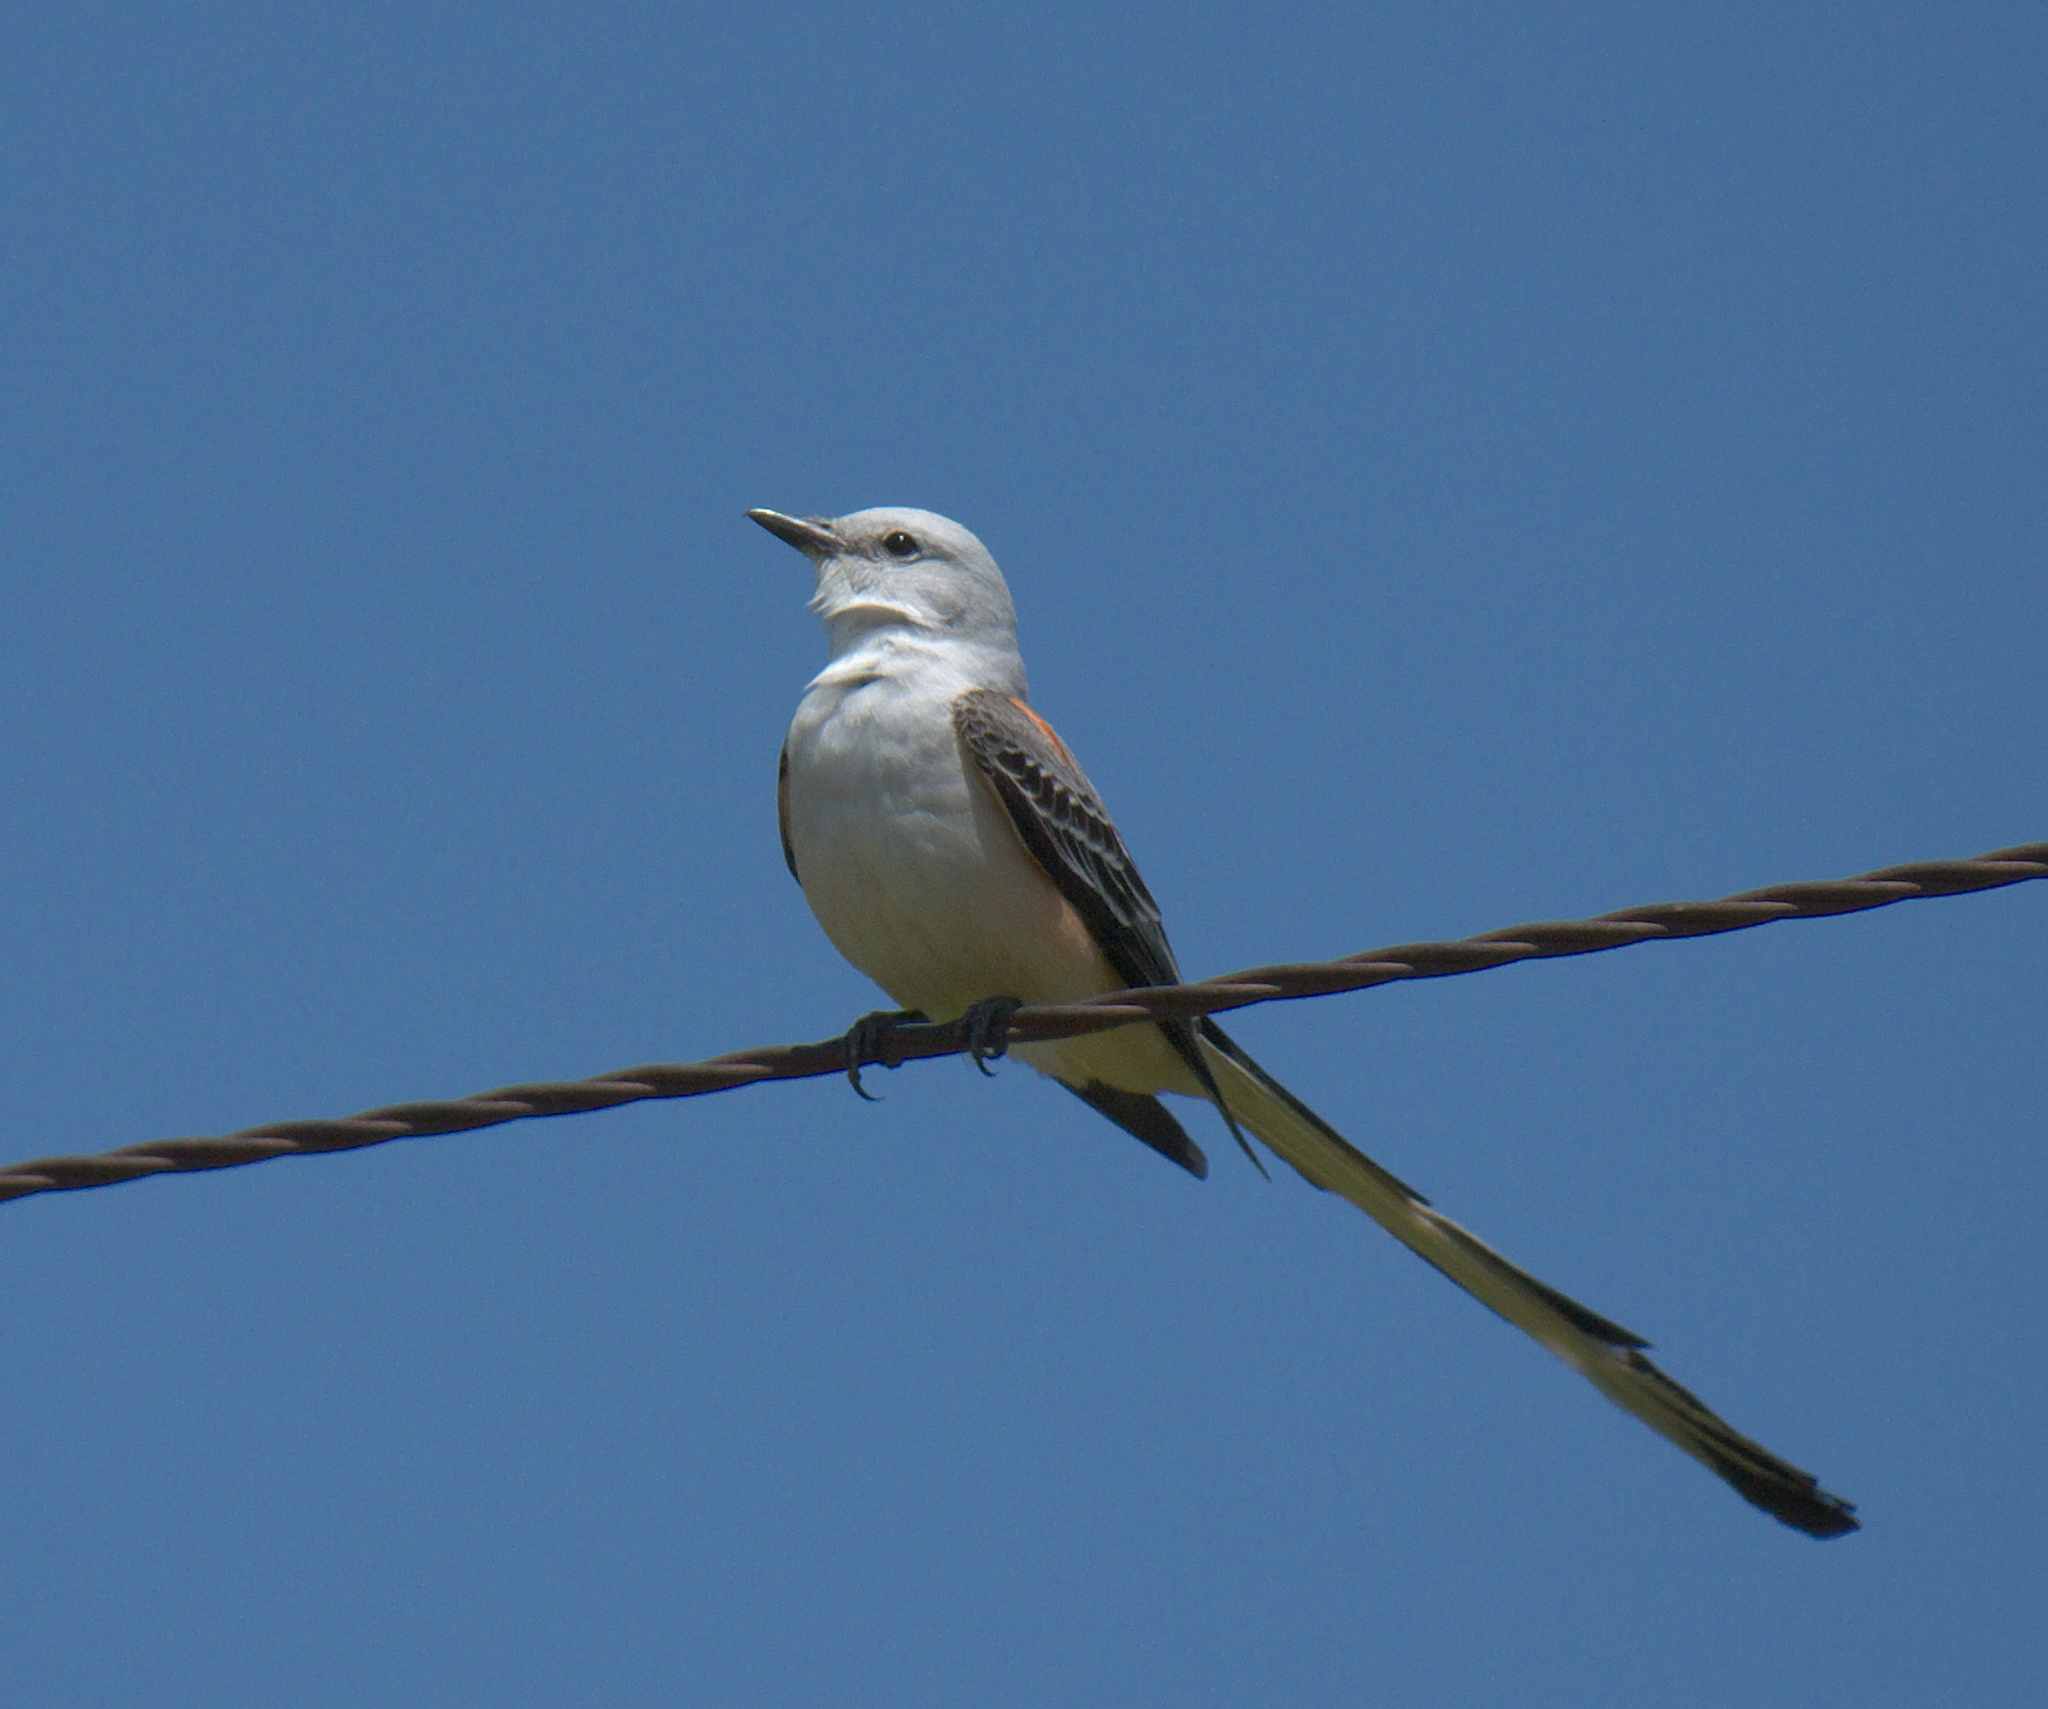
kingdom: Animalia
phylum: Chordata
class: Aves
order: Passeriformes
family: Tyrannidae
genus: Tyrannus
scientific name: Tyrannus forficatus
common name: Scissor-tailed flycatcher
